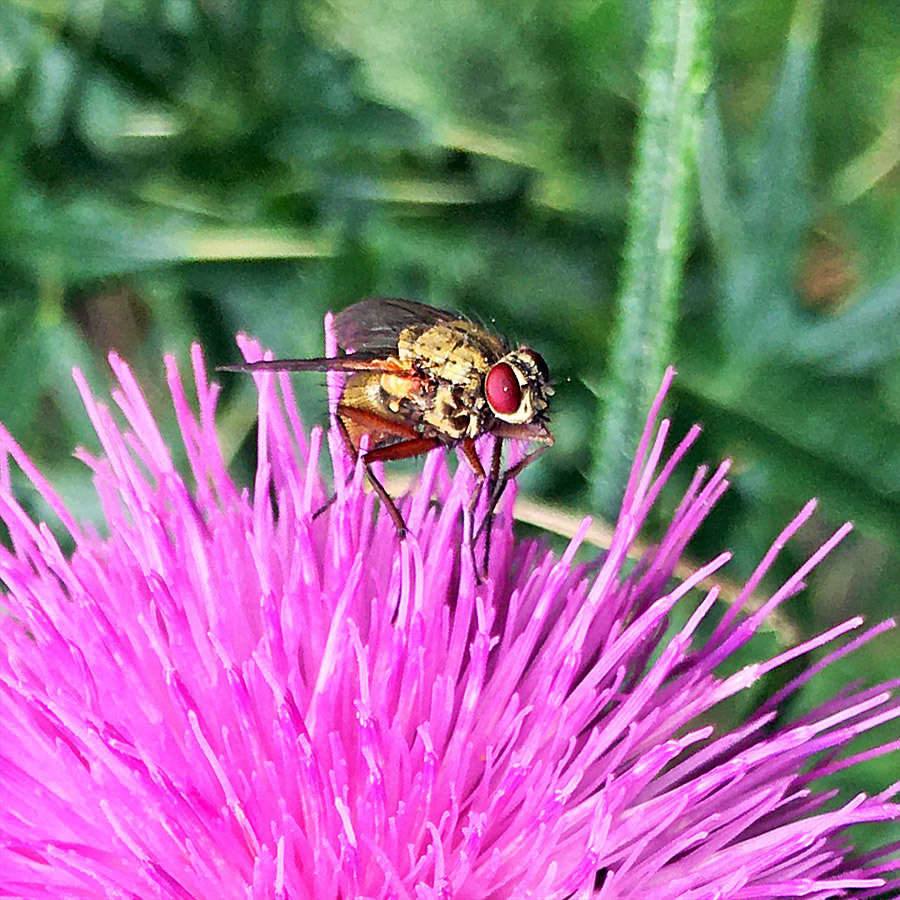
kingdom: Animalia
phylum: Arthropoda
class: Insecta
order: Diptera
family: Muscidae
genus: Phaonia
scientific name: Phaonia angelicae
